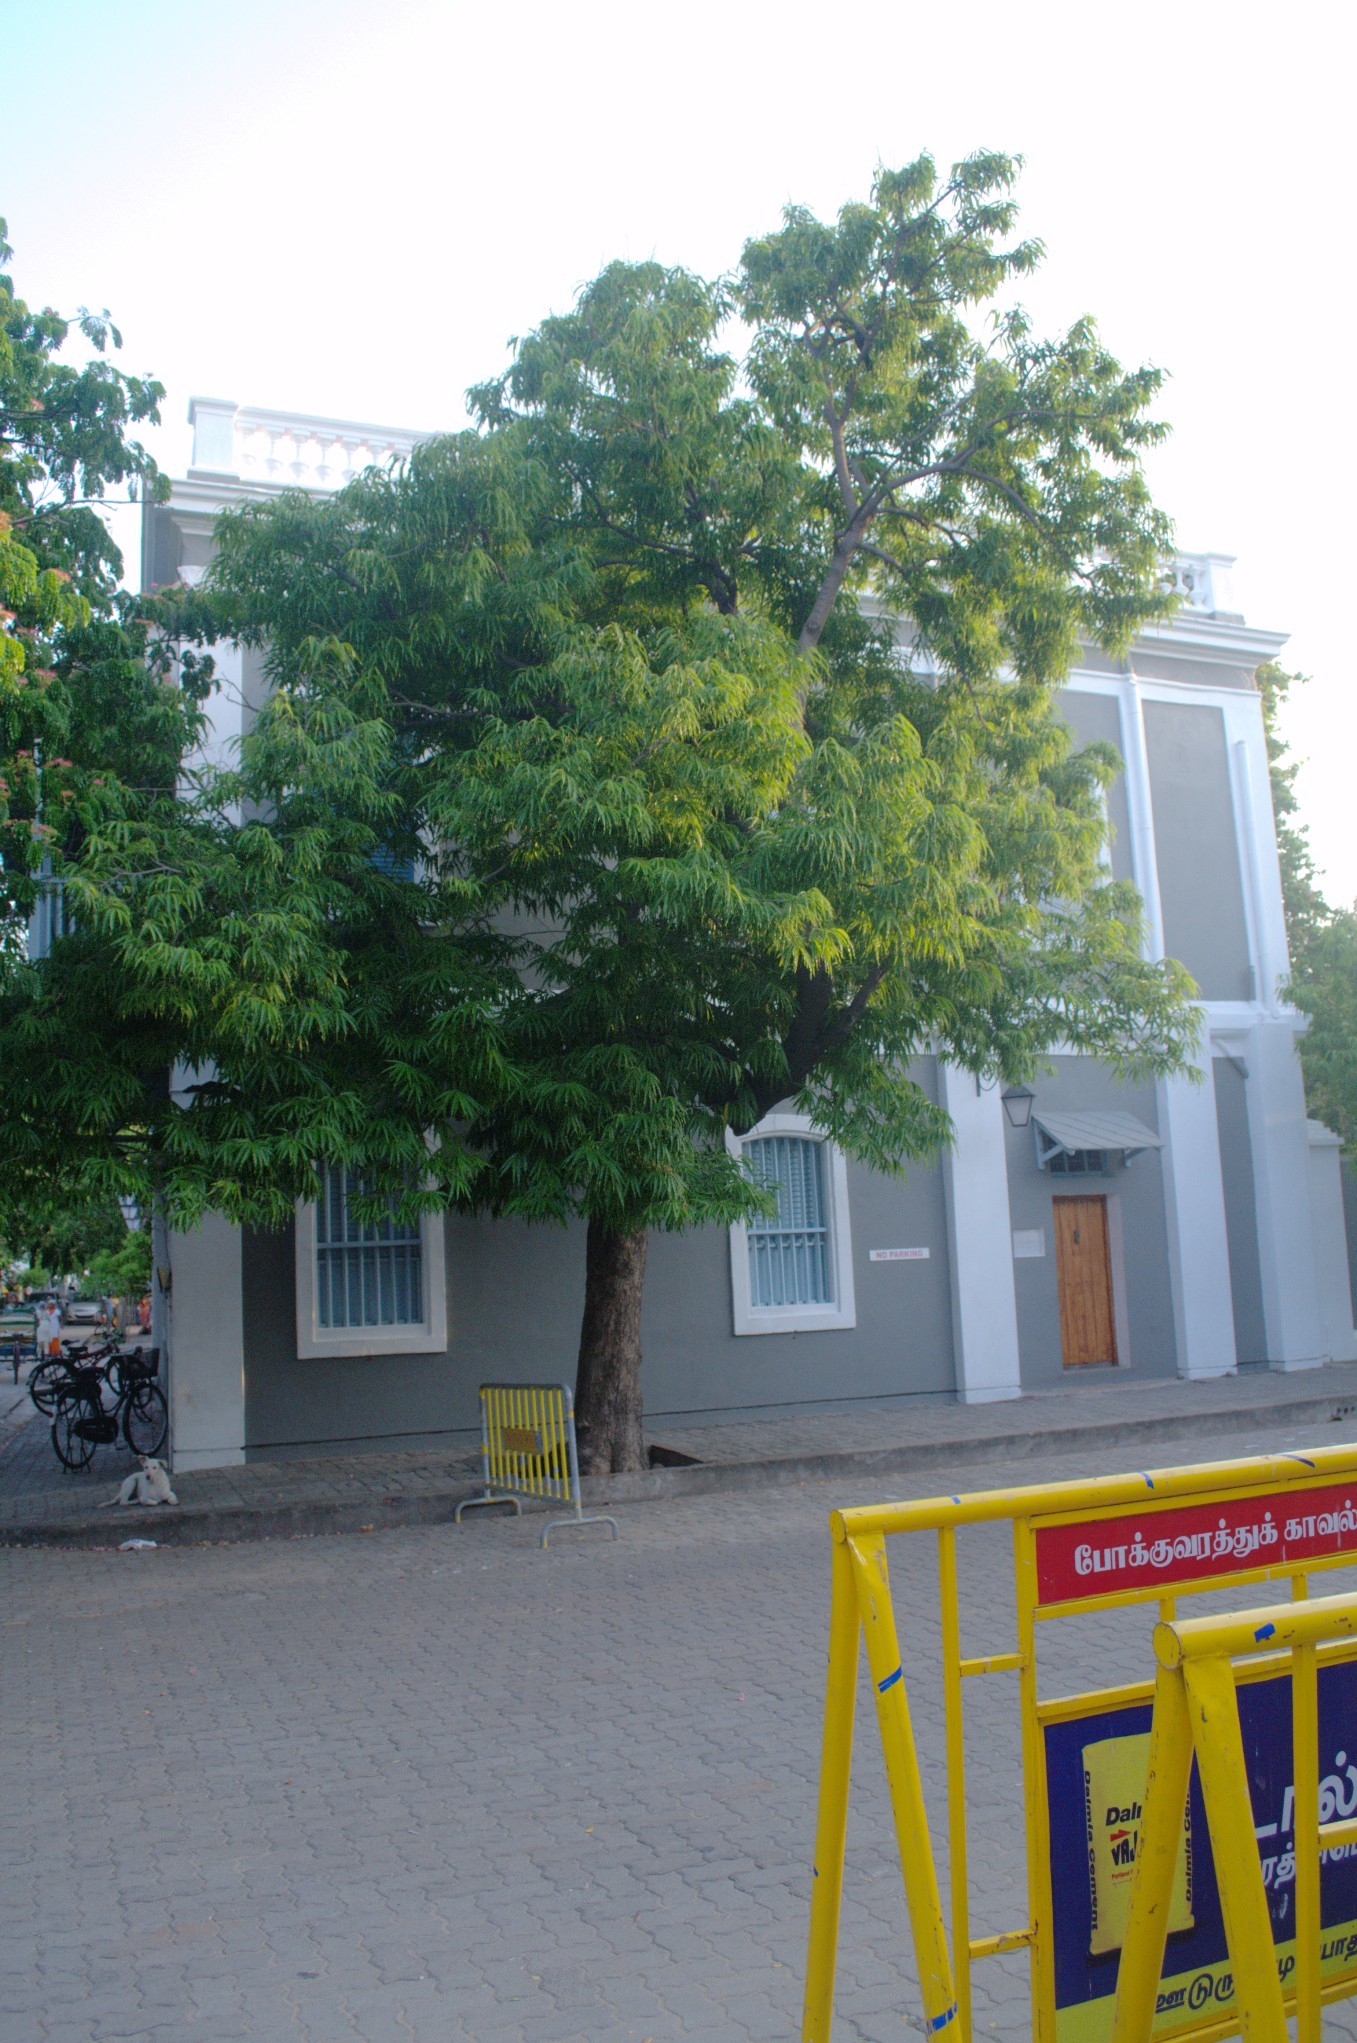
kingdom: Plantae
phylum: Tracheophyta
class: Magnoliopsida
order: Magnoliales
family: Annonaceae
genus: Polyalthia
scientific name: Polyalthia longifolia
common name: Cemetery-tree
